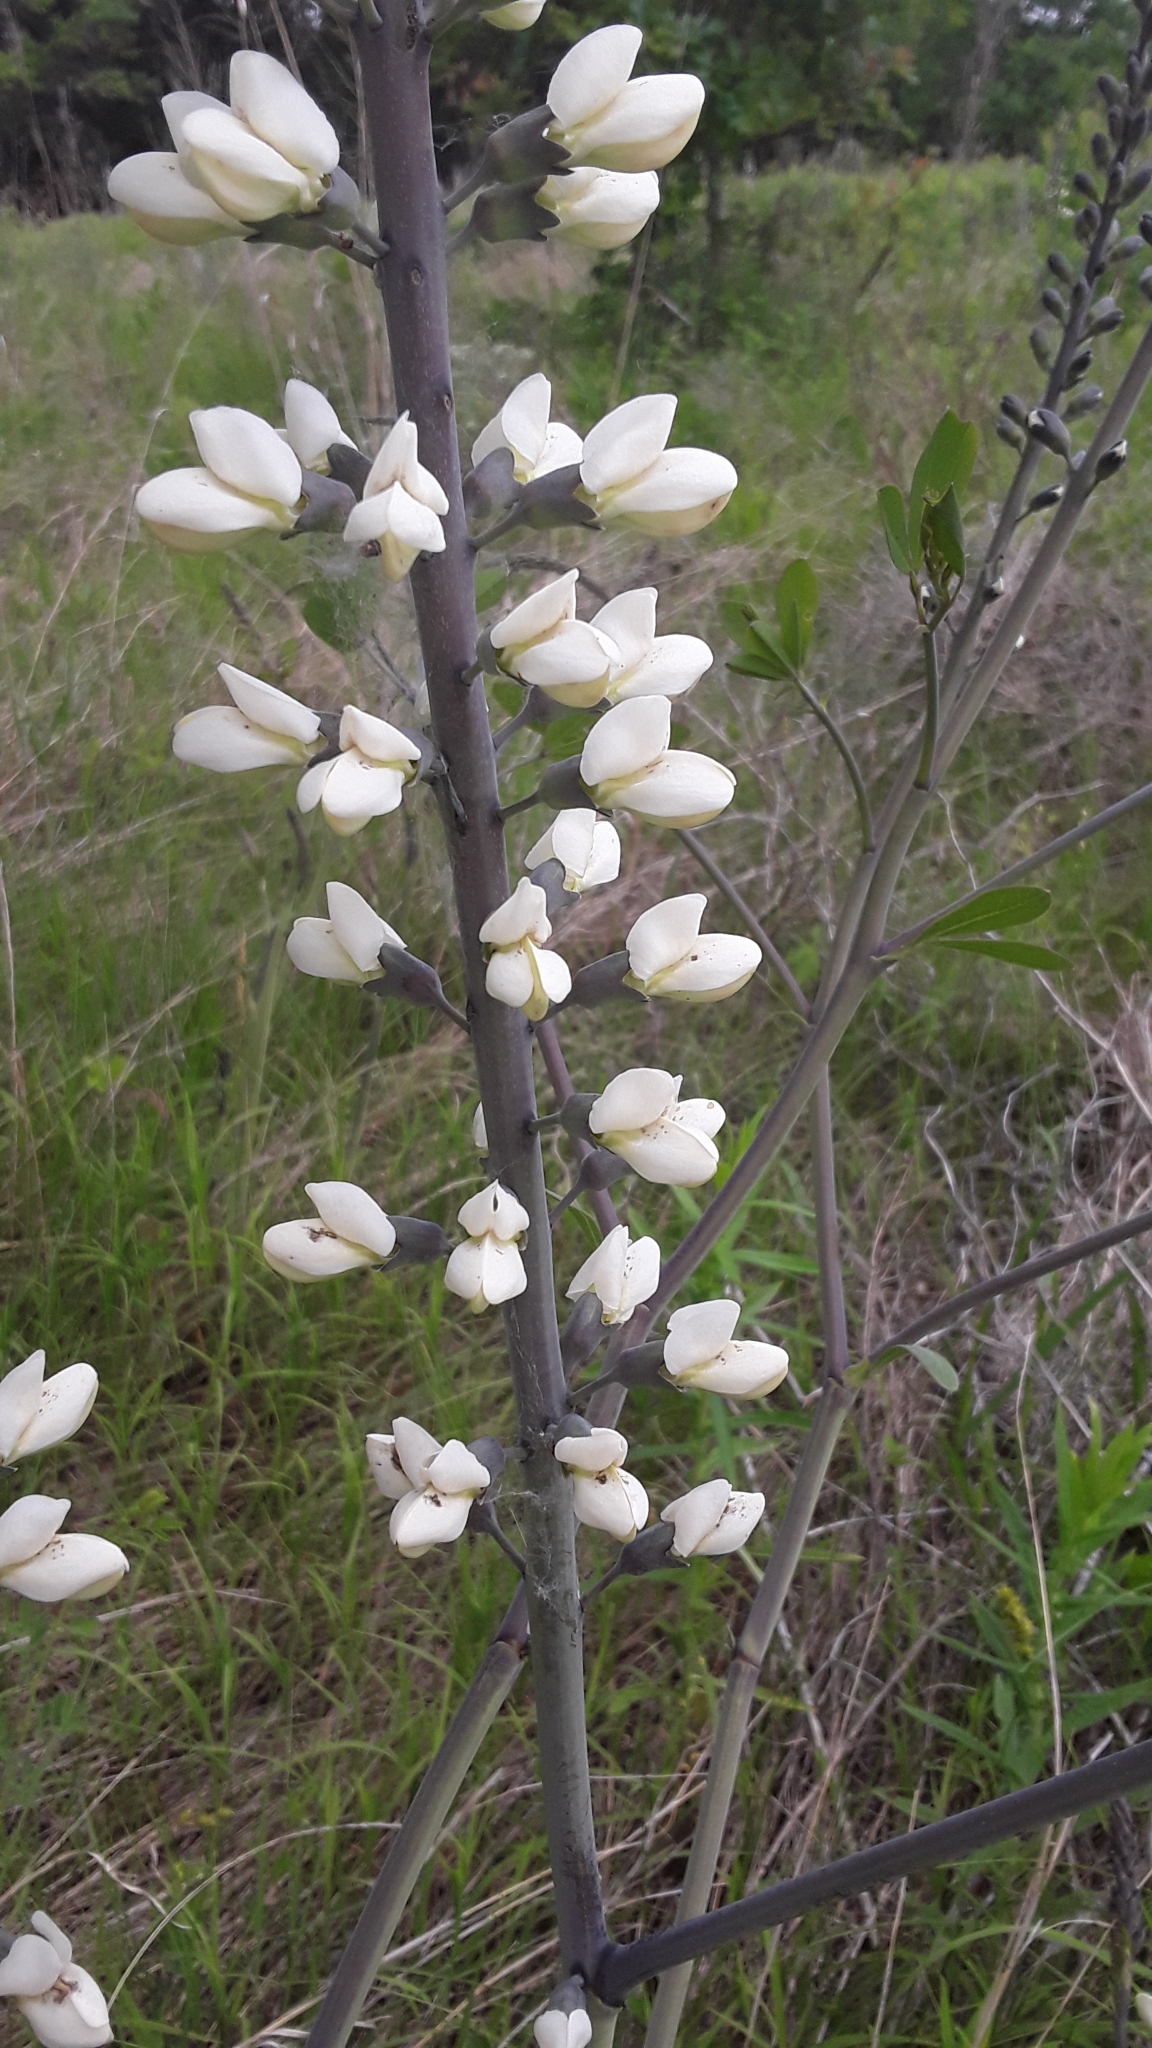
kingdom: Plantae
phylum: Tracheophyta
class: Magnoliopsida
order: Fabales
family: Fabaceae
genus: Baptisia
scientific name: Baptisia alba
